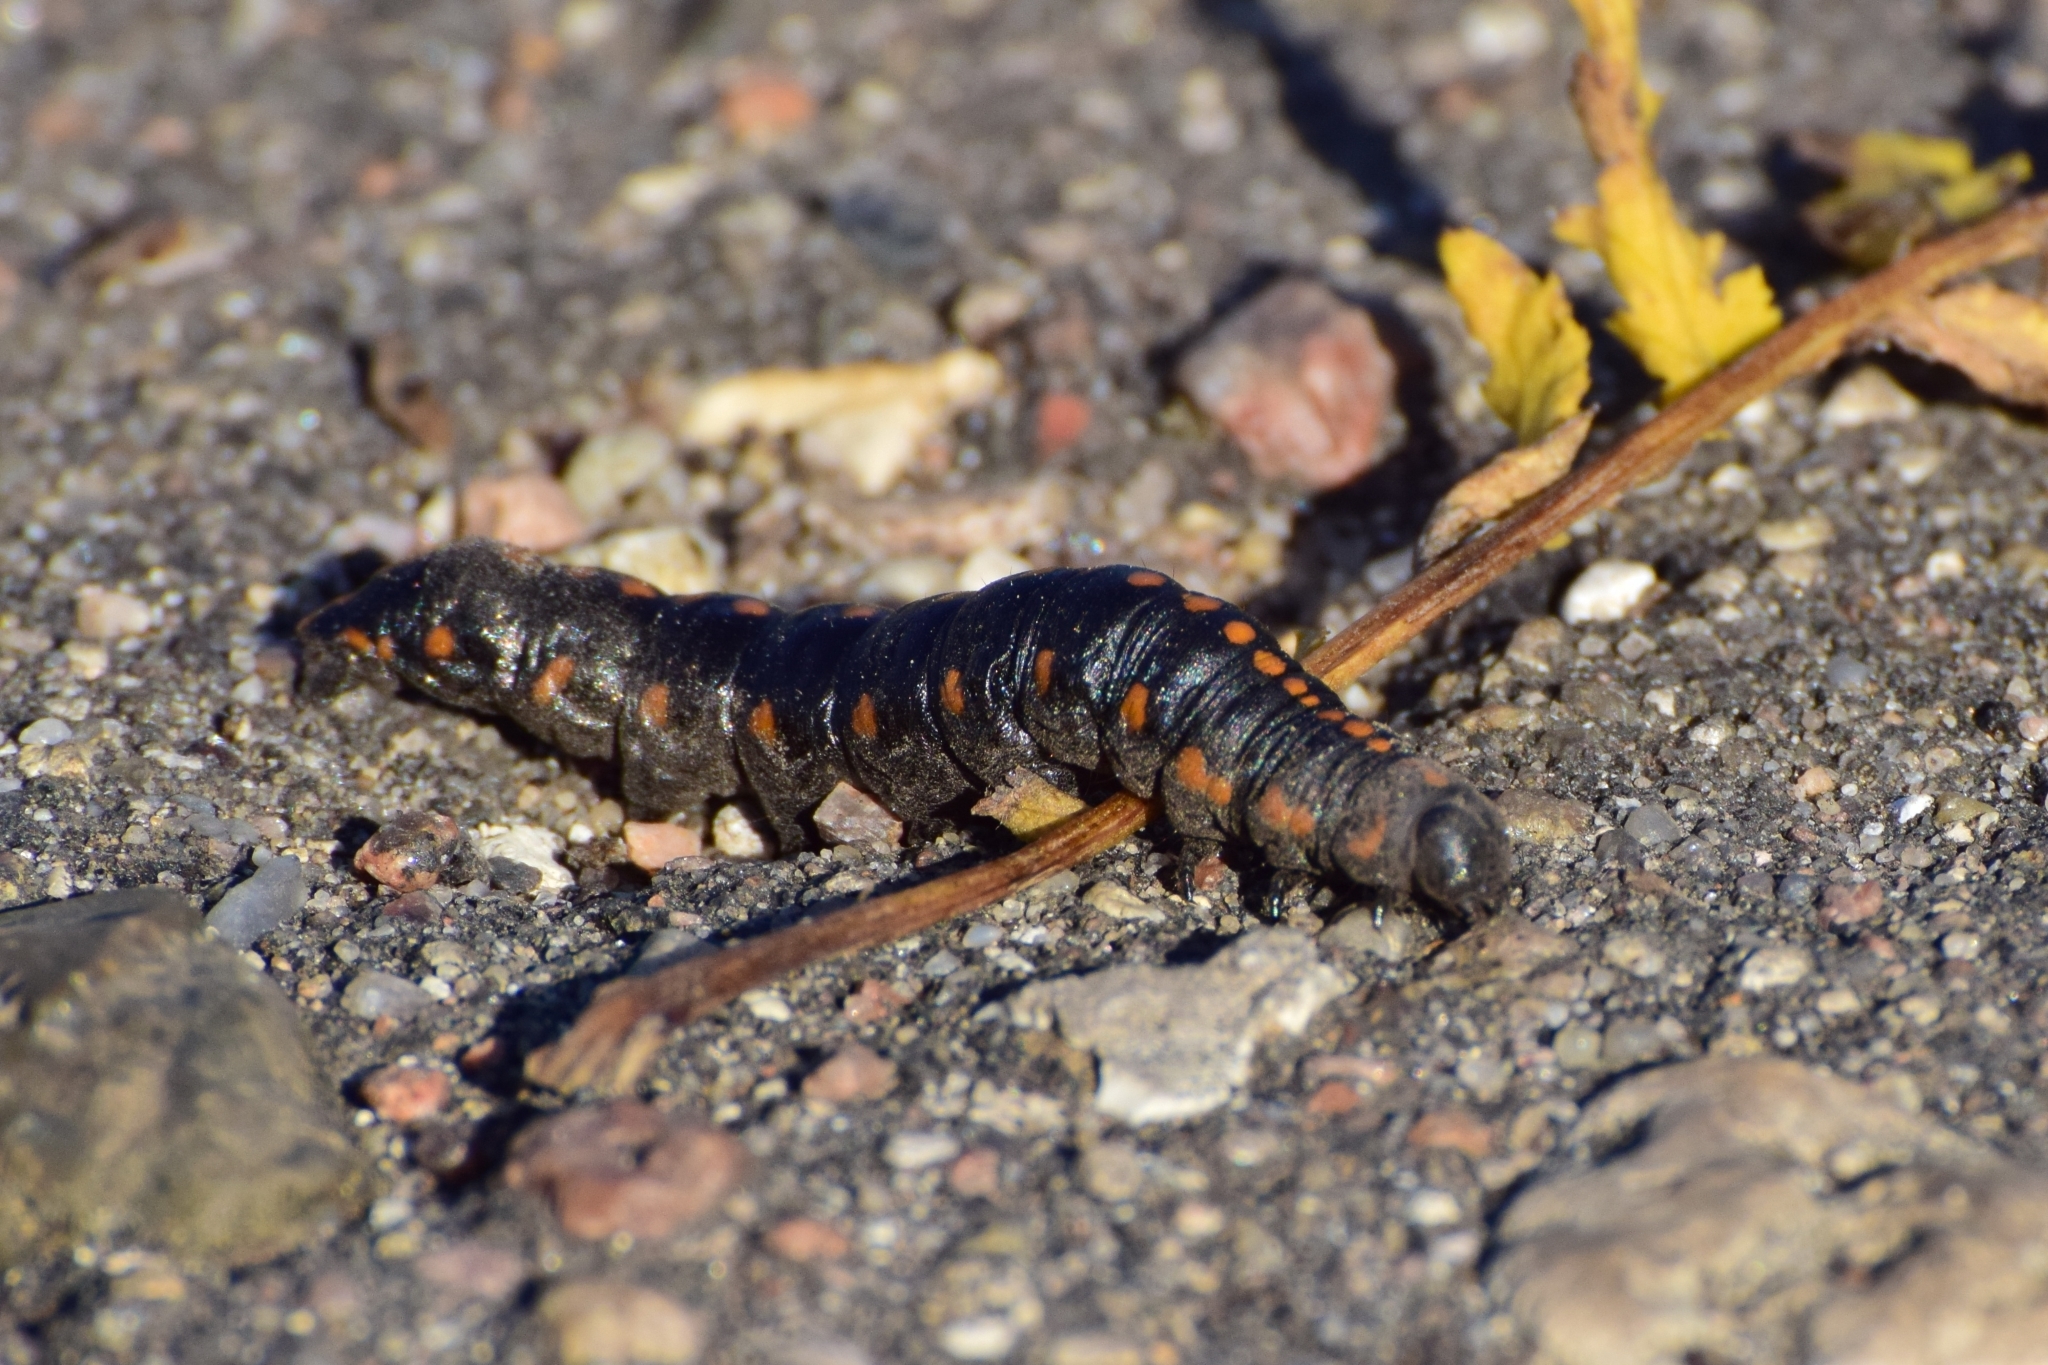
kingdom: Animalia
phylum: Arthropoda
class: Insecta
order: Lepidoptera
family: Noctuidae
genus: Cucullia
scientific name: Cucullia lucifuga
